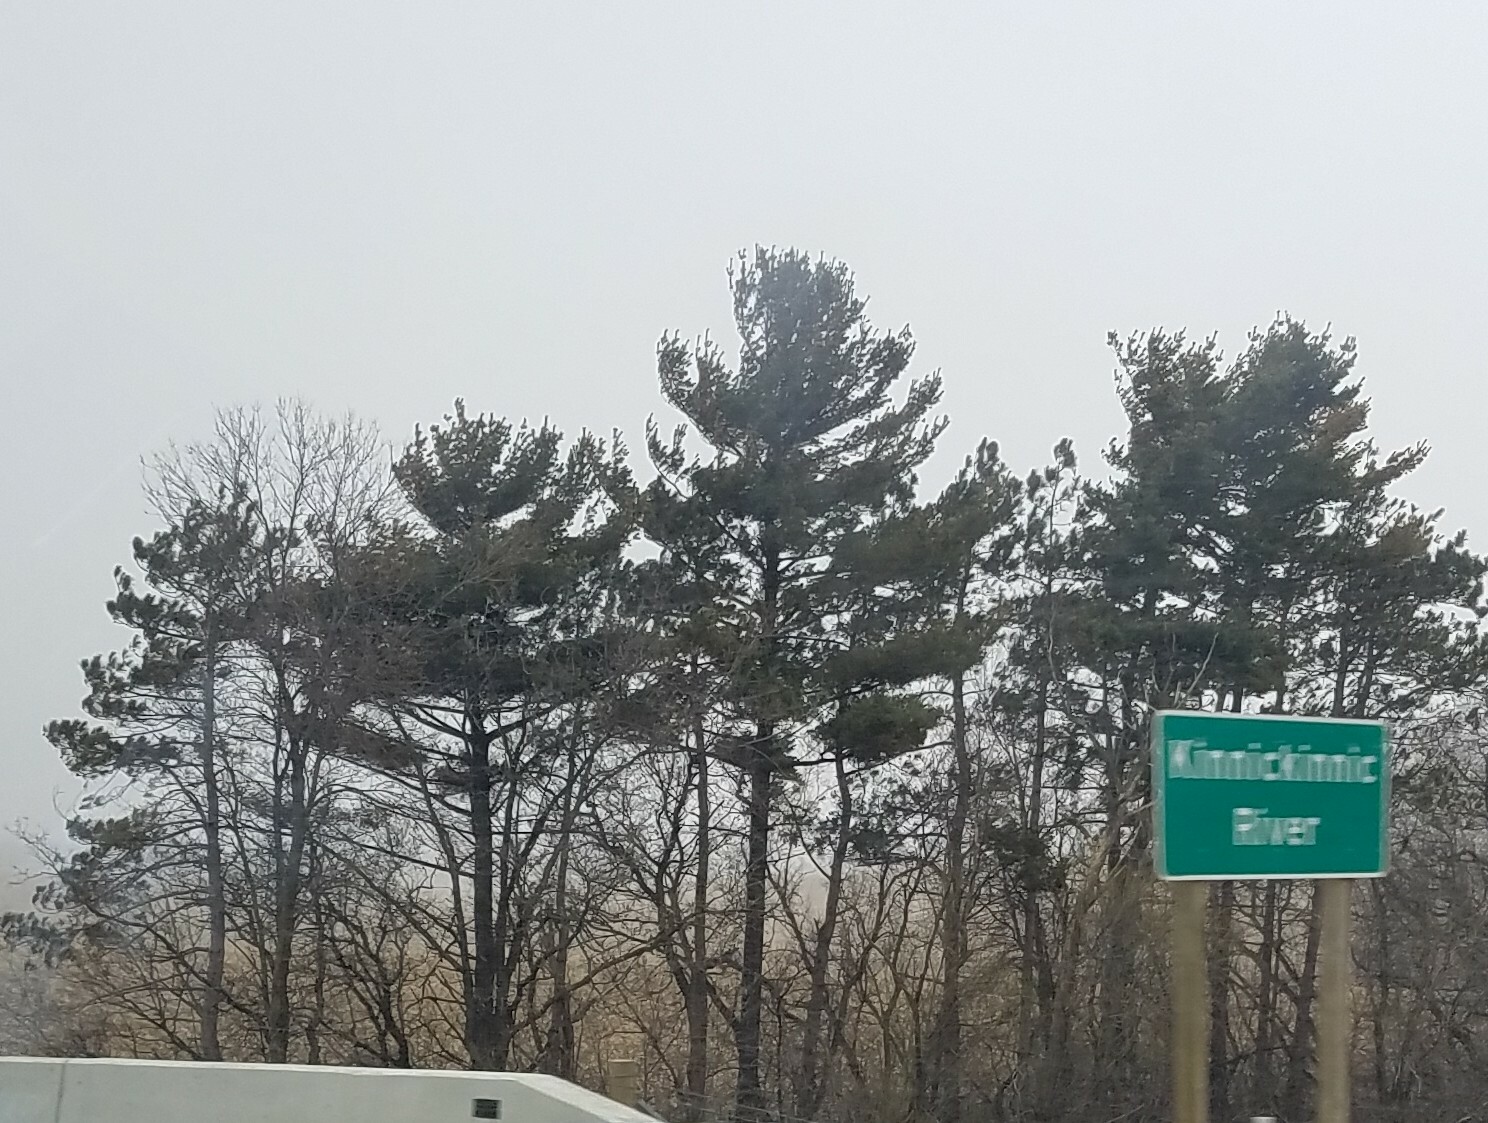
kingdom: Plantae
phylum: Tracheophyta
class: Pinopsida
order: Pinales
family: Pinaceae
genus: Pinus
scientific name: Pinus strobus
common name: Weymouth pine
